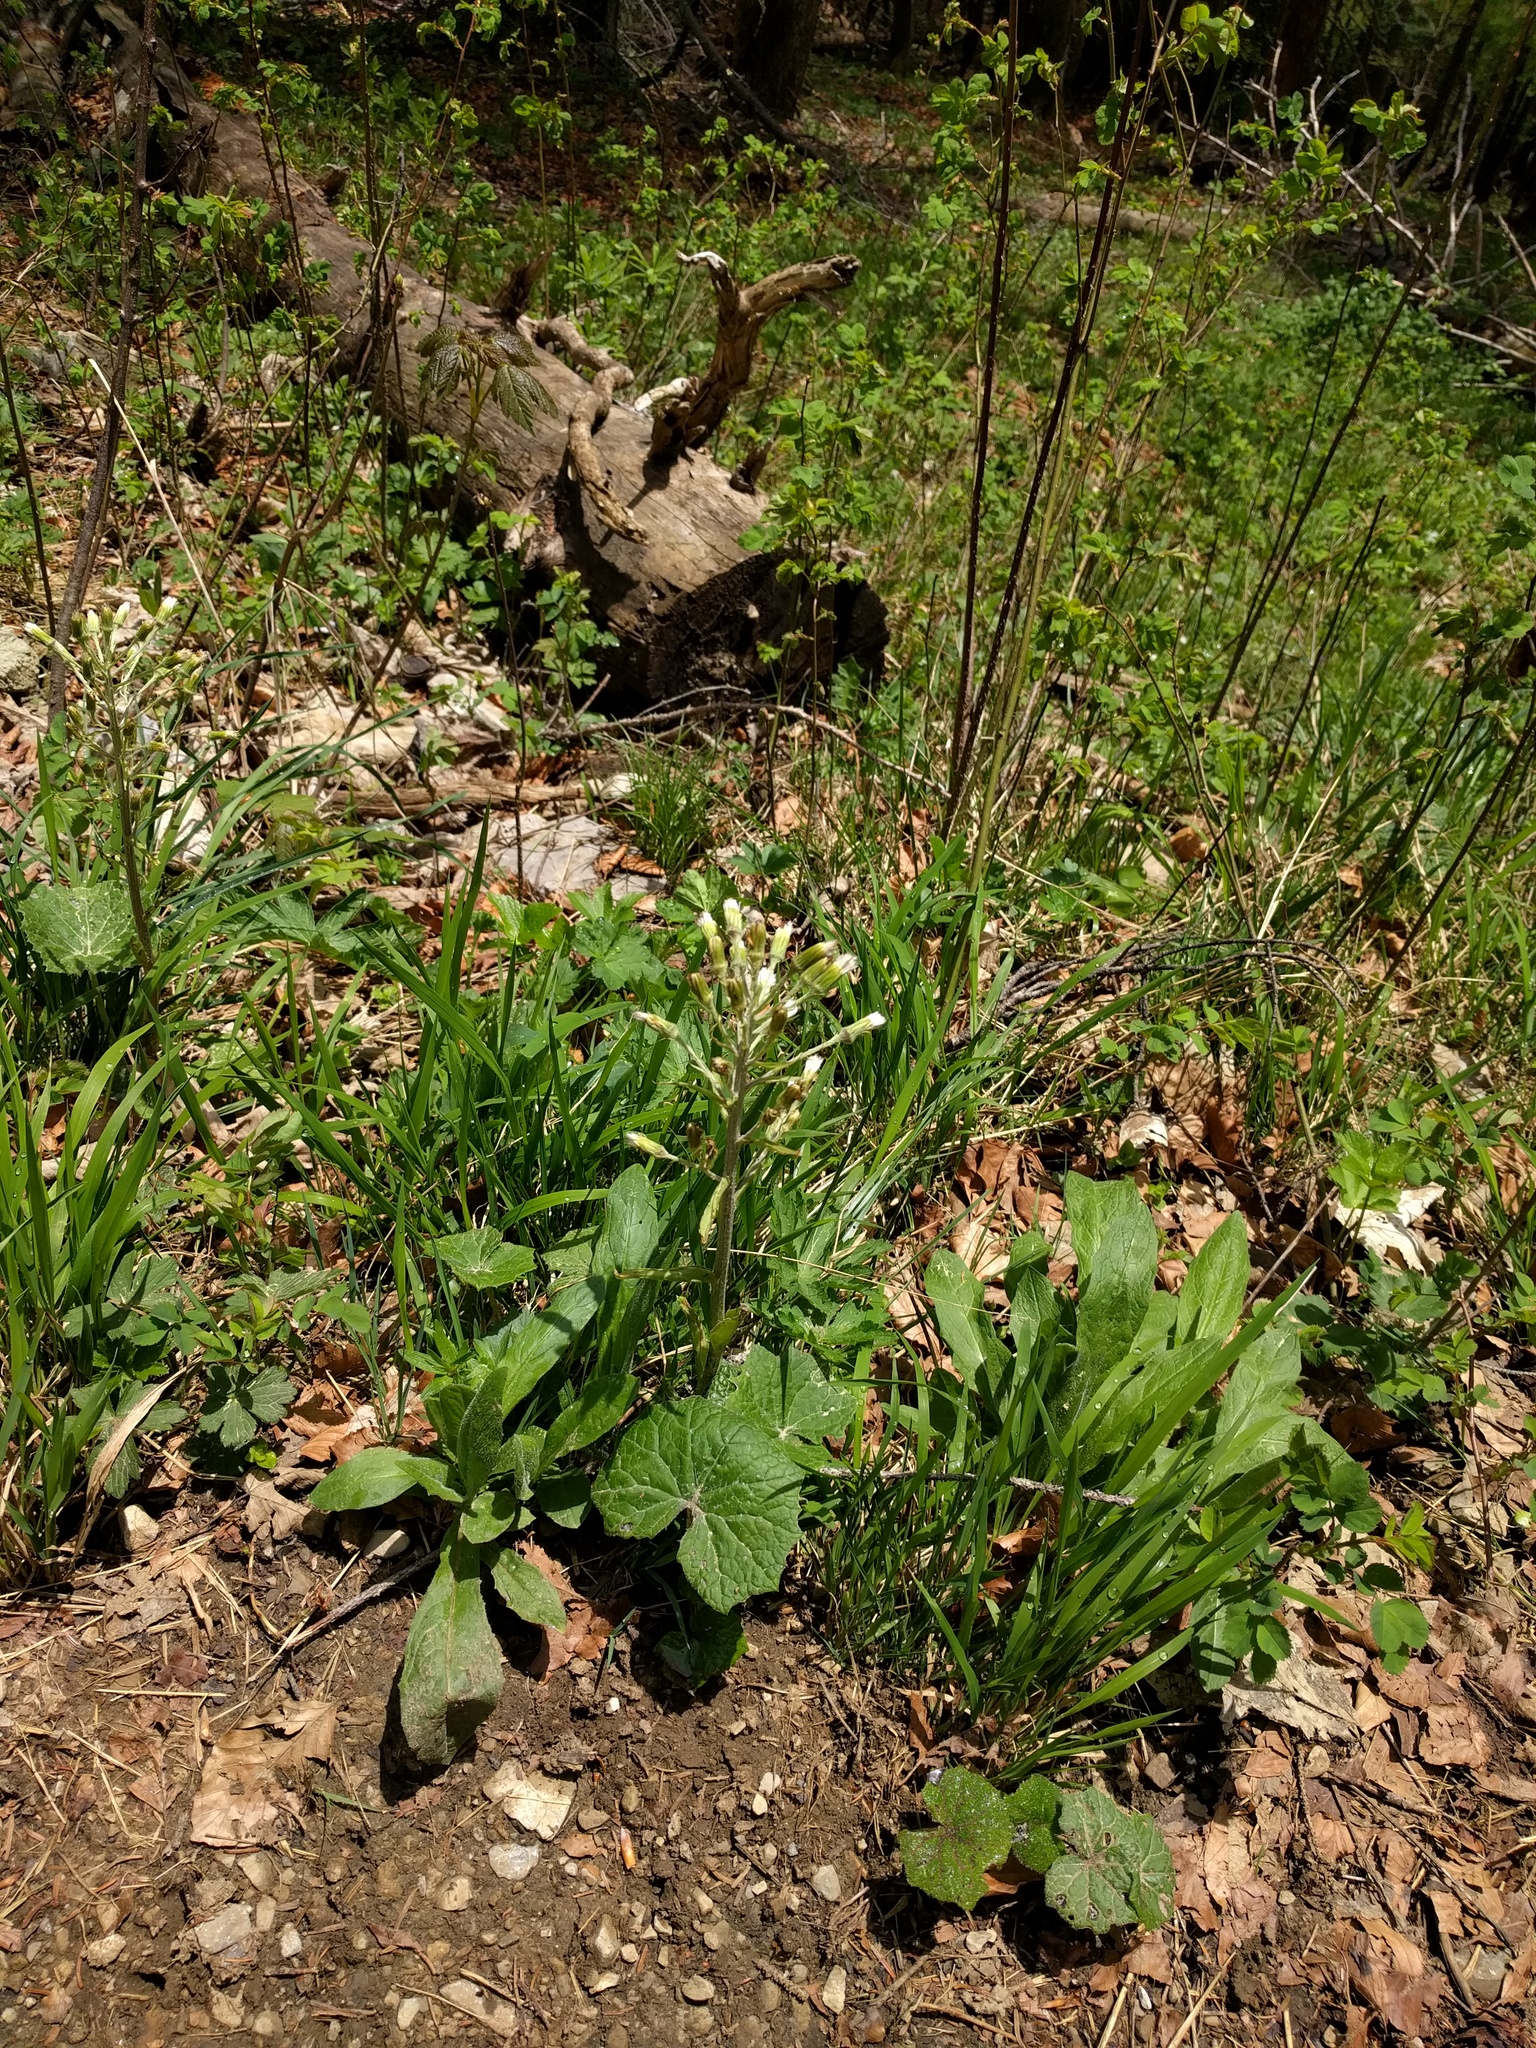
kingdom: Plantae
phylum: Tracheophyta
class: Magnoliopsida
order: Asterales
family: Asteraceae
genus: Petasites
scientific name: Petasites albus
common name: White butterbur
